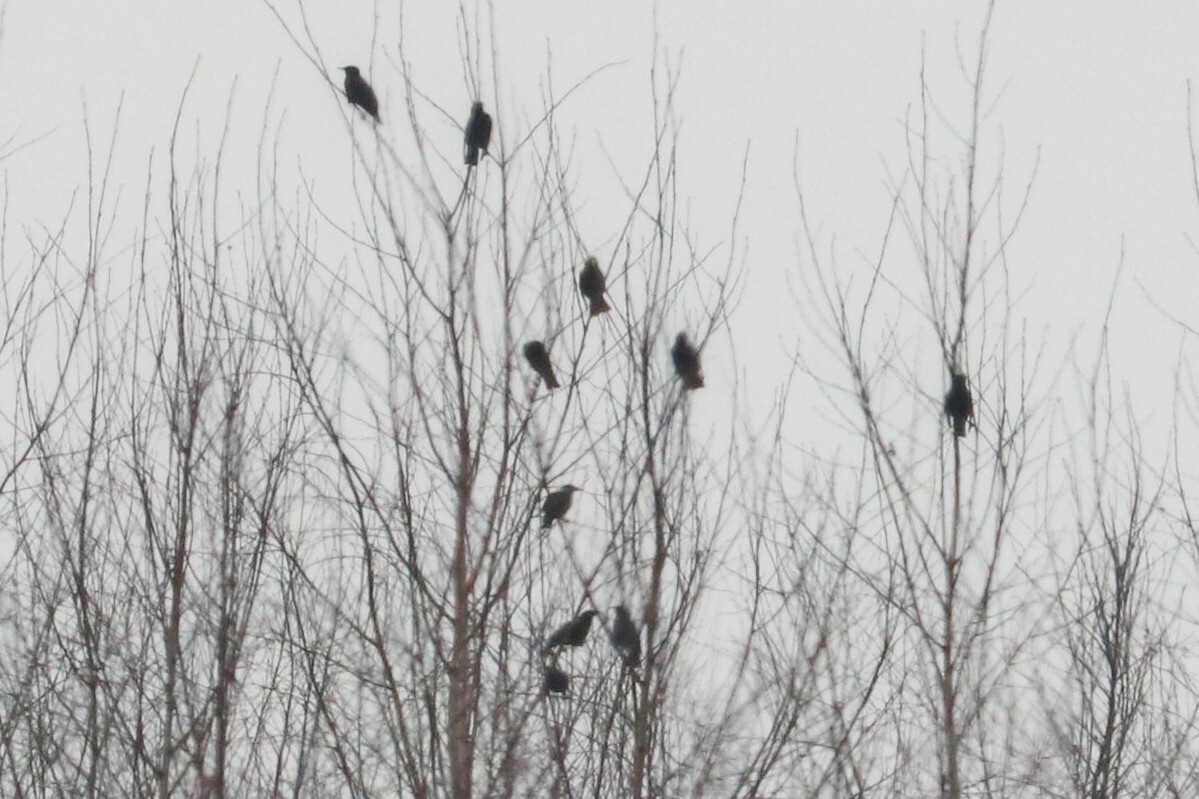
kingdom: Animalia
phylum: Chordata
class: Aves
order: Passeriformes
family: Sturnidae
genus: Sturnus
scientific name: Sturnus vulgaris
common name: Common starling
